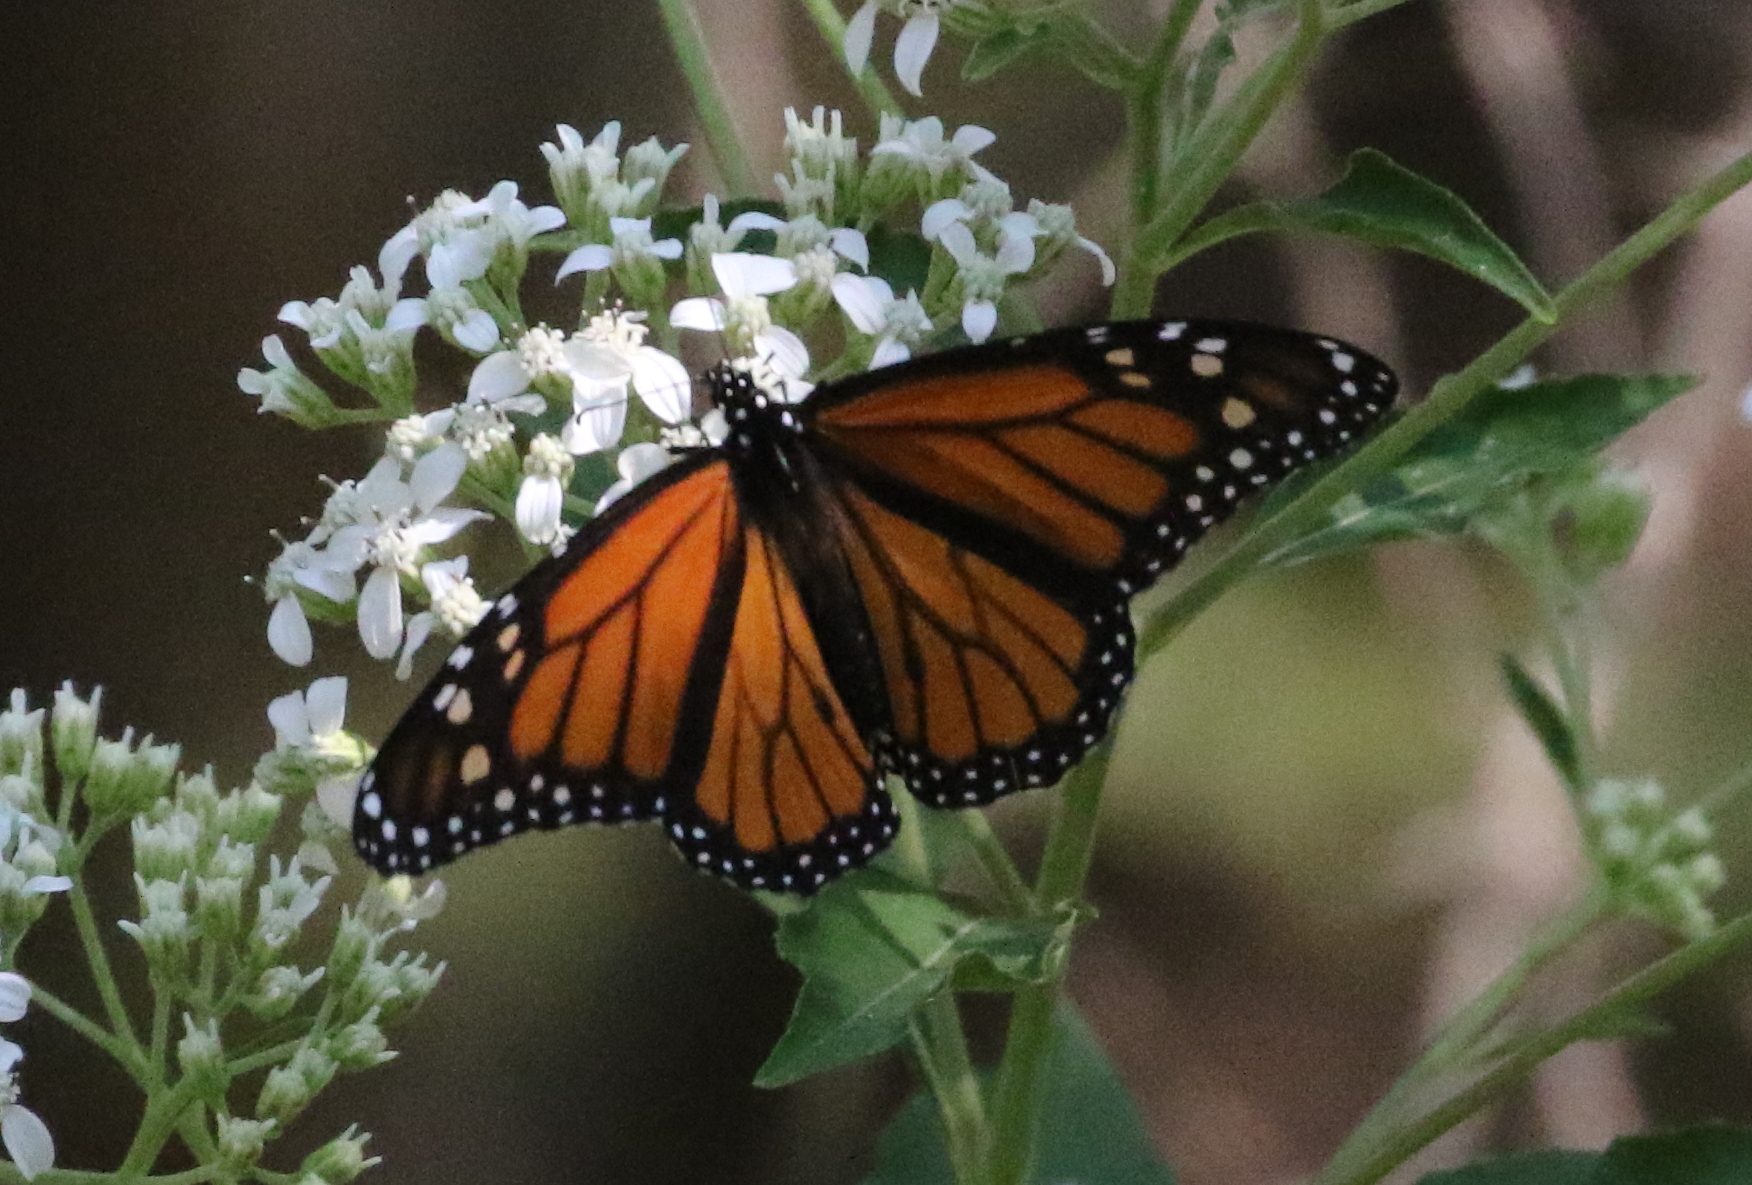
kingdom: Animalia
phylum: Arthropoda
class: Insecta
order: Lepidoptera
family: Nymphalidae
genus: Danaus
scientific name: Danaus plexippus
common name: Monarch
